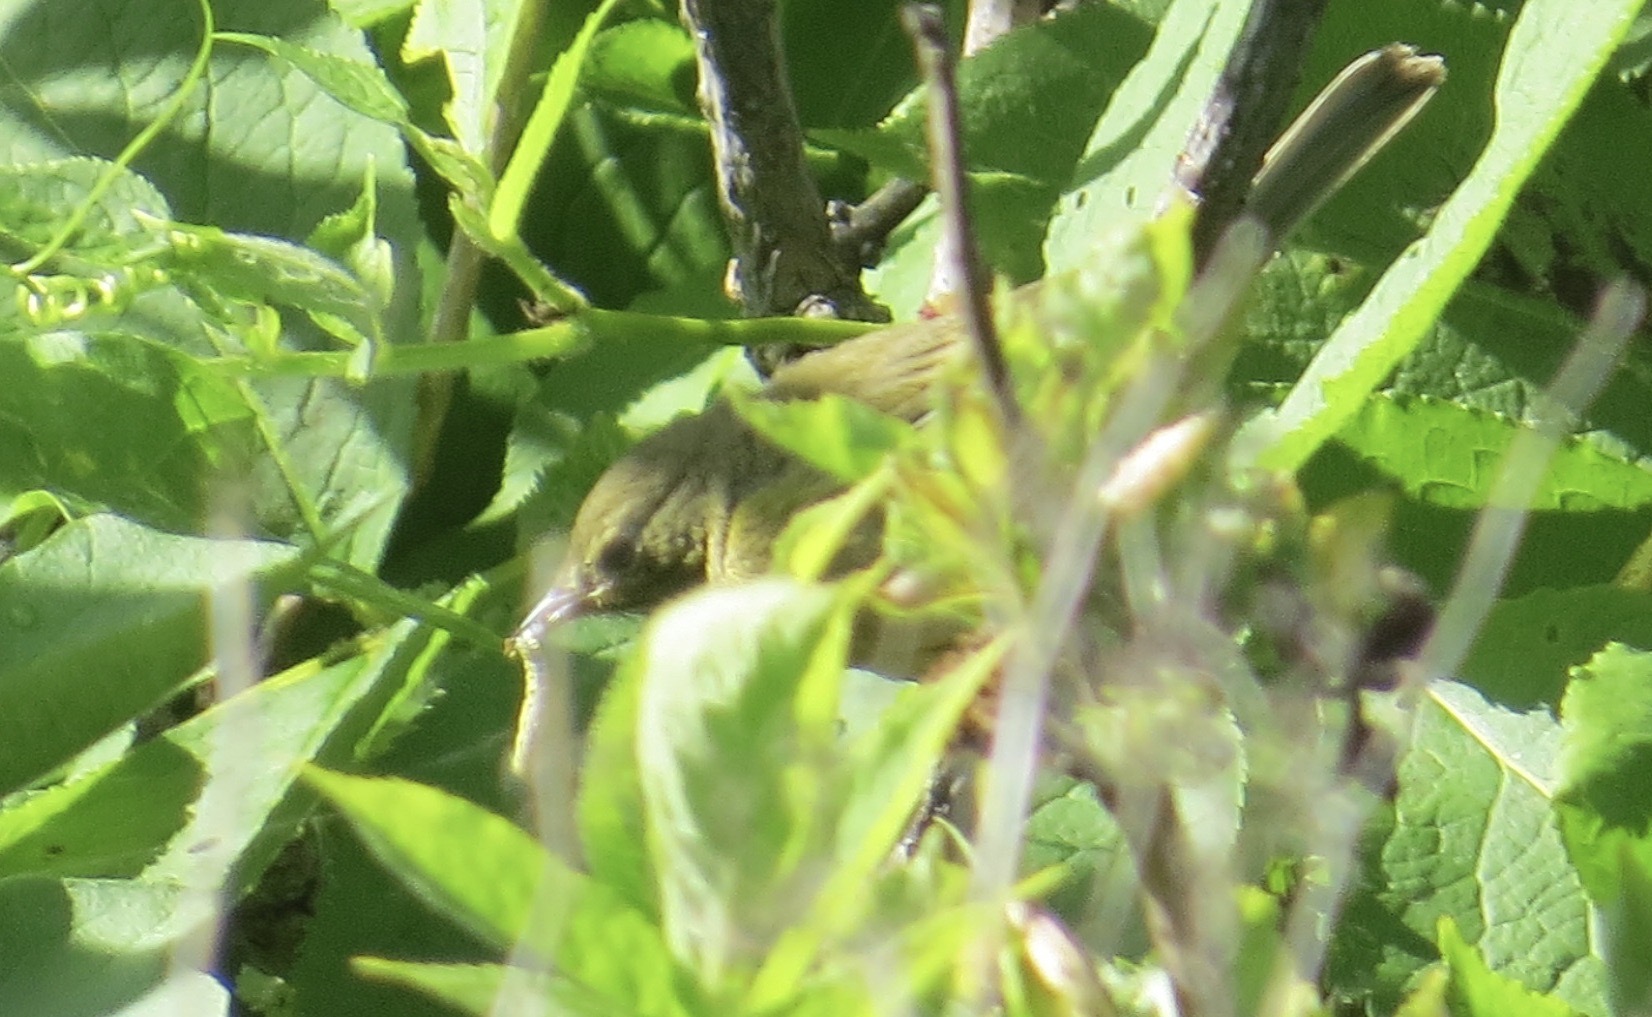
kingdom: Animalia
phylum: Chordata
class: Aves
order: Passeriformes
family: Parulidae
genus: Leiothlypis
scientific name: Leiothlypis celata
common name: Orange-crowned warbler
